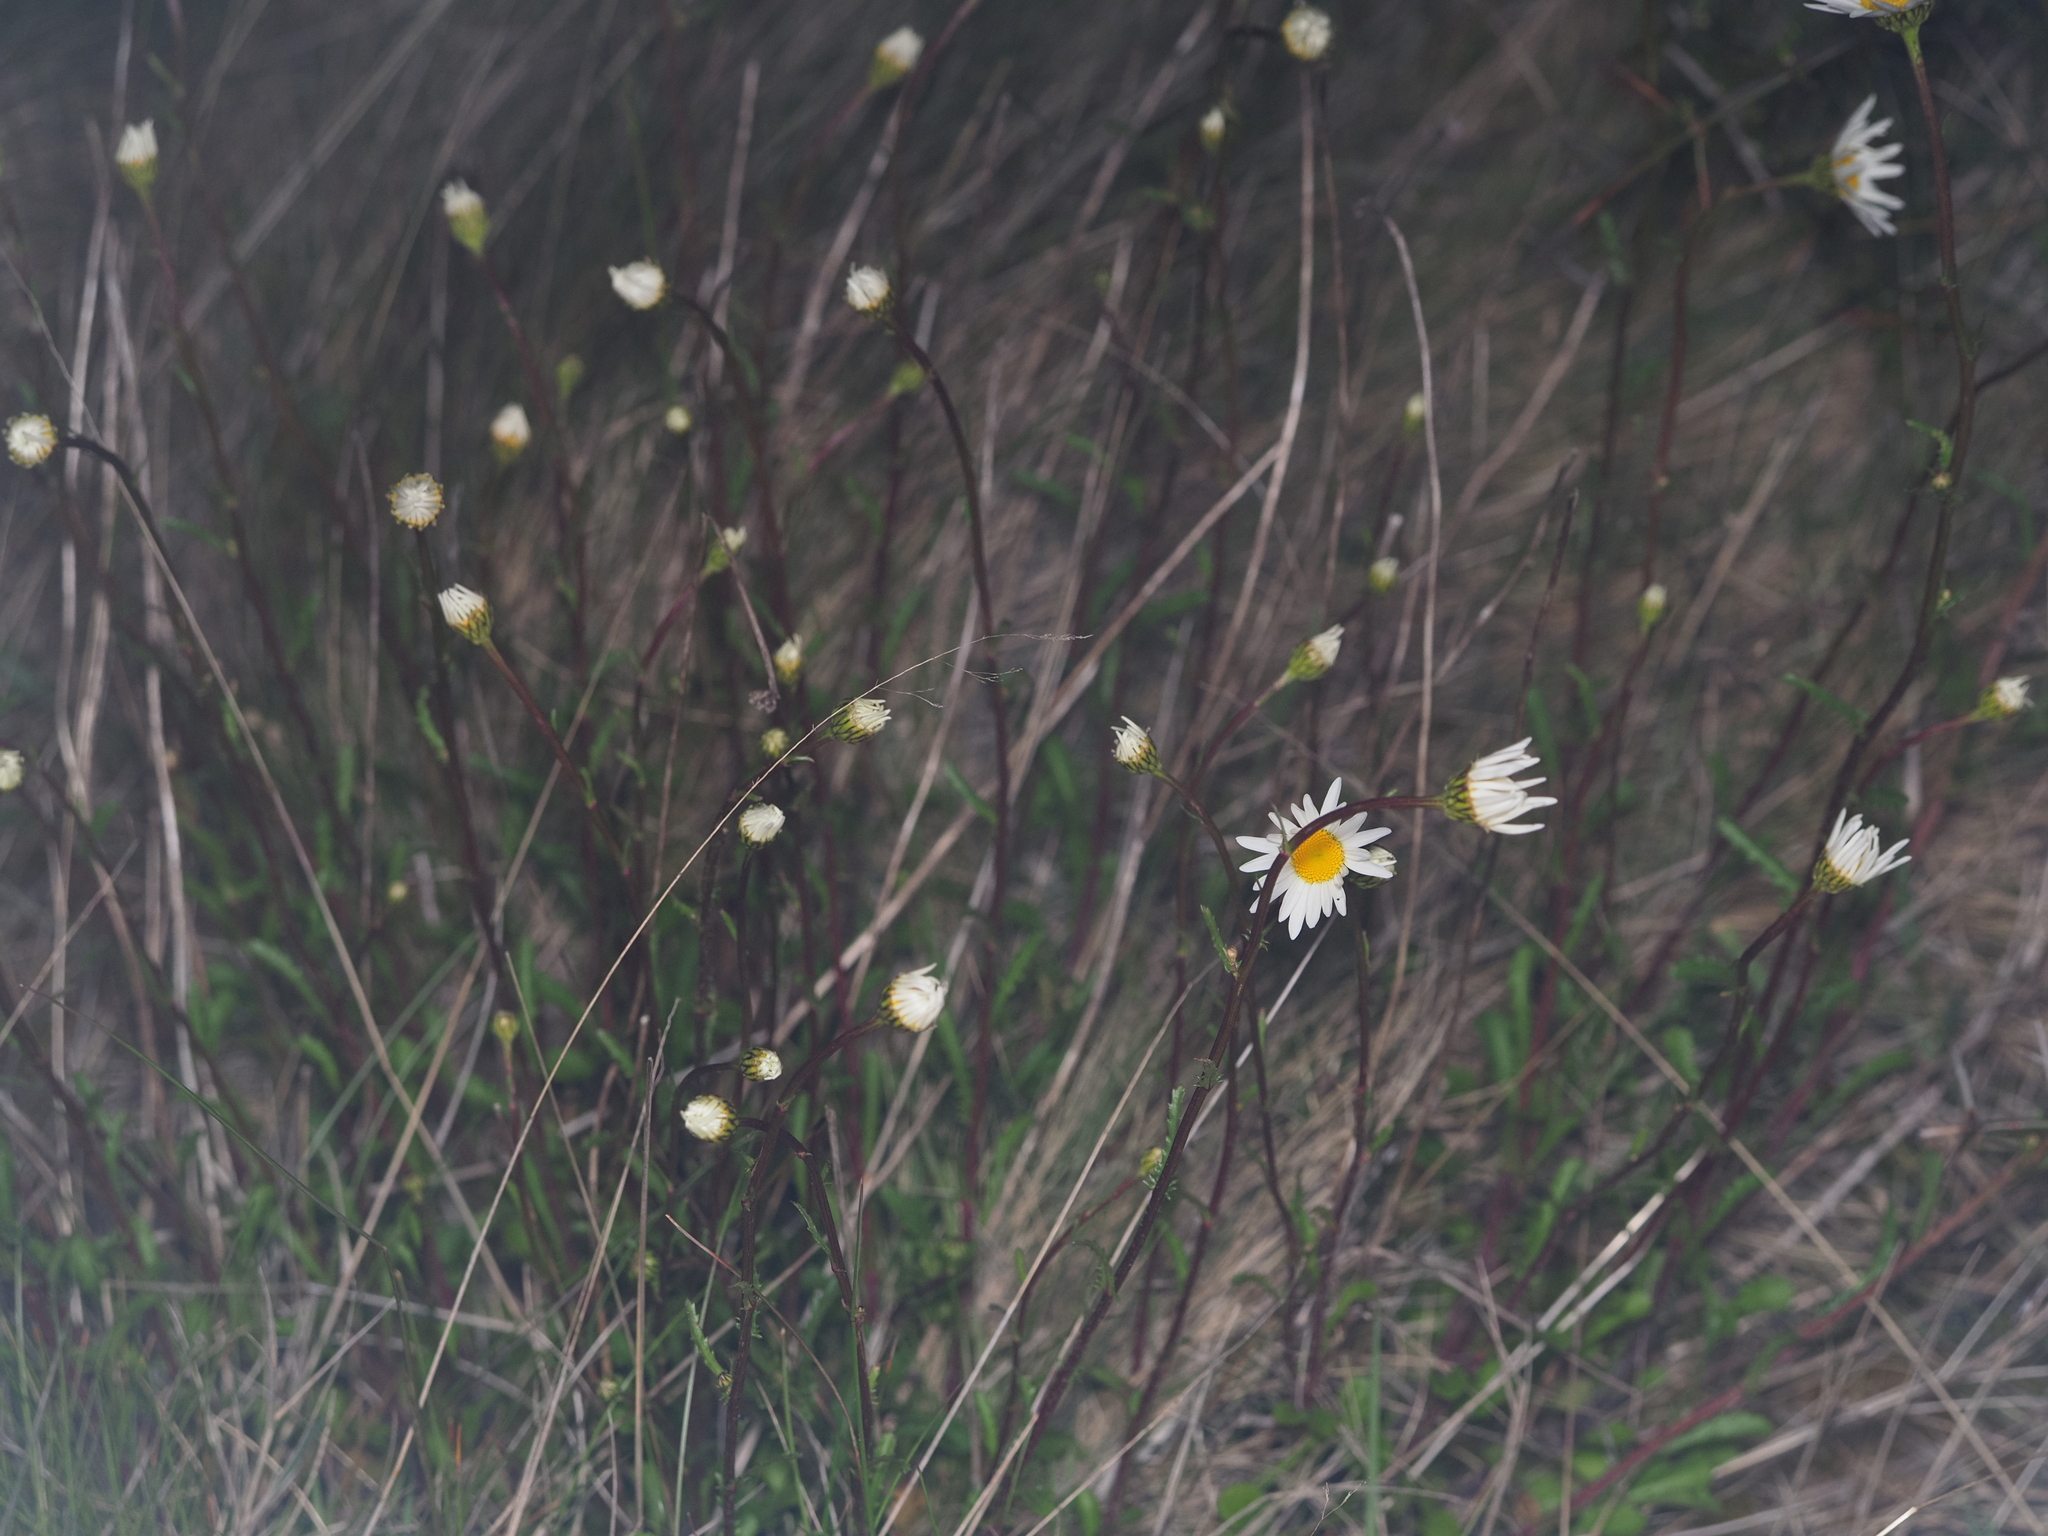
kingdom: Plantae
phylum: Tracheophyta
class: Magnoliopsida
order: Asterales
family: Asteraceae
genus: Leucanthemum
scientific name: Leucanthemum vulgare
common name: Oxeye daisy
